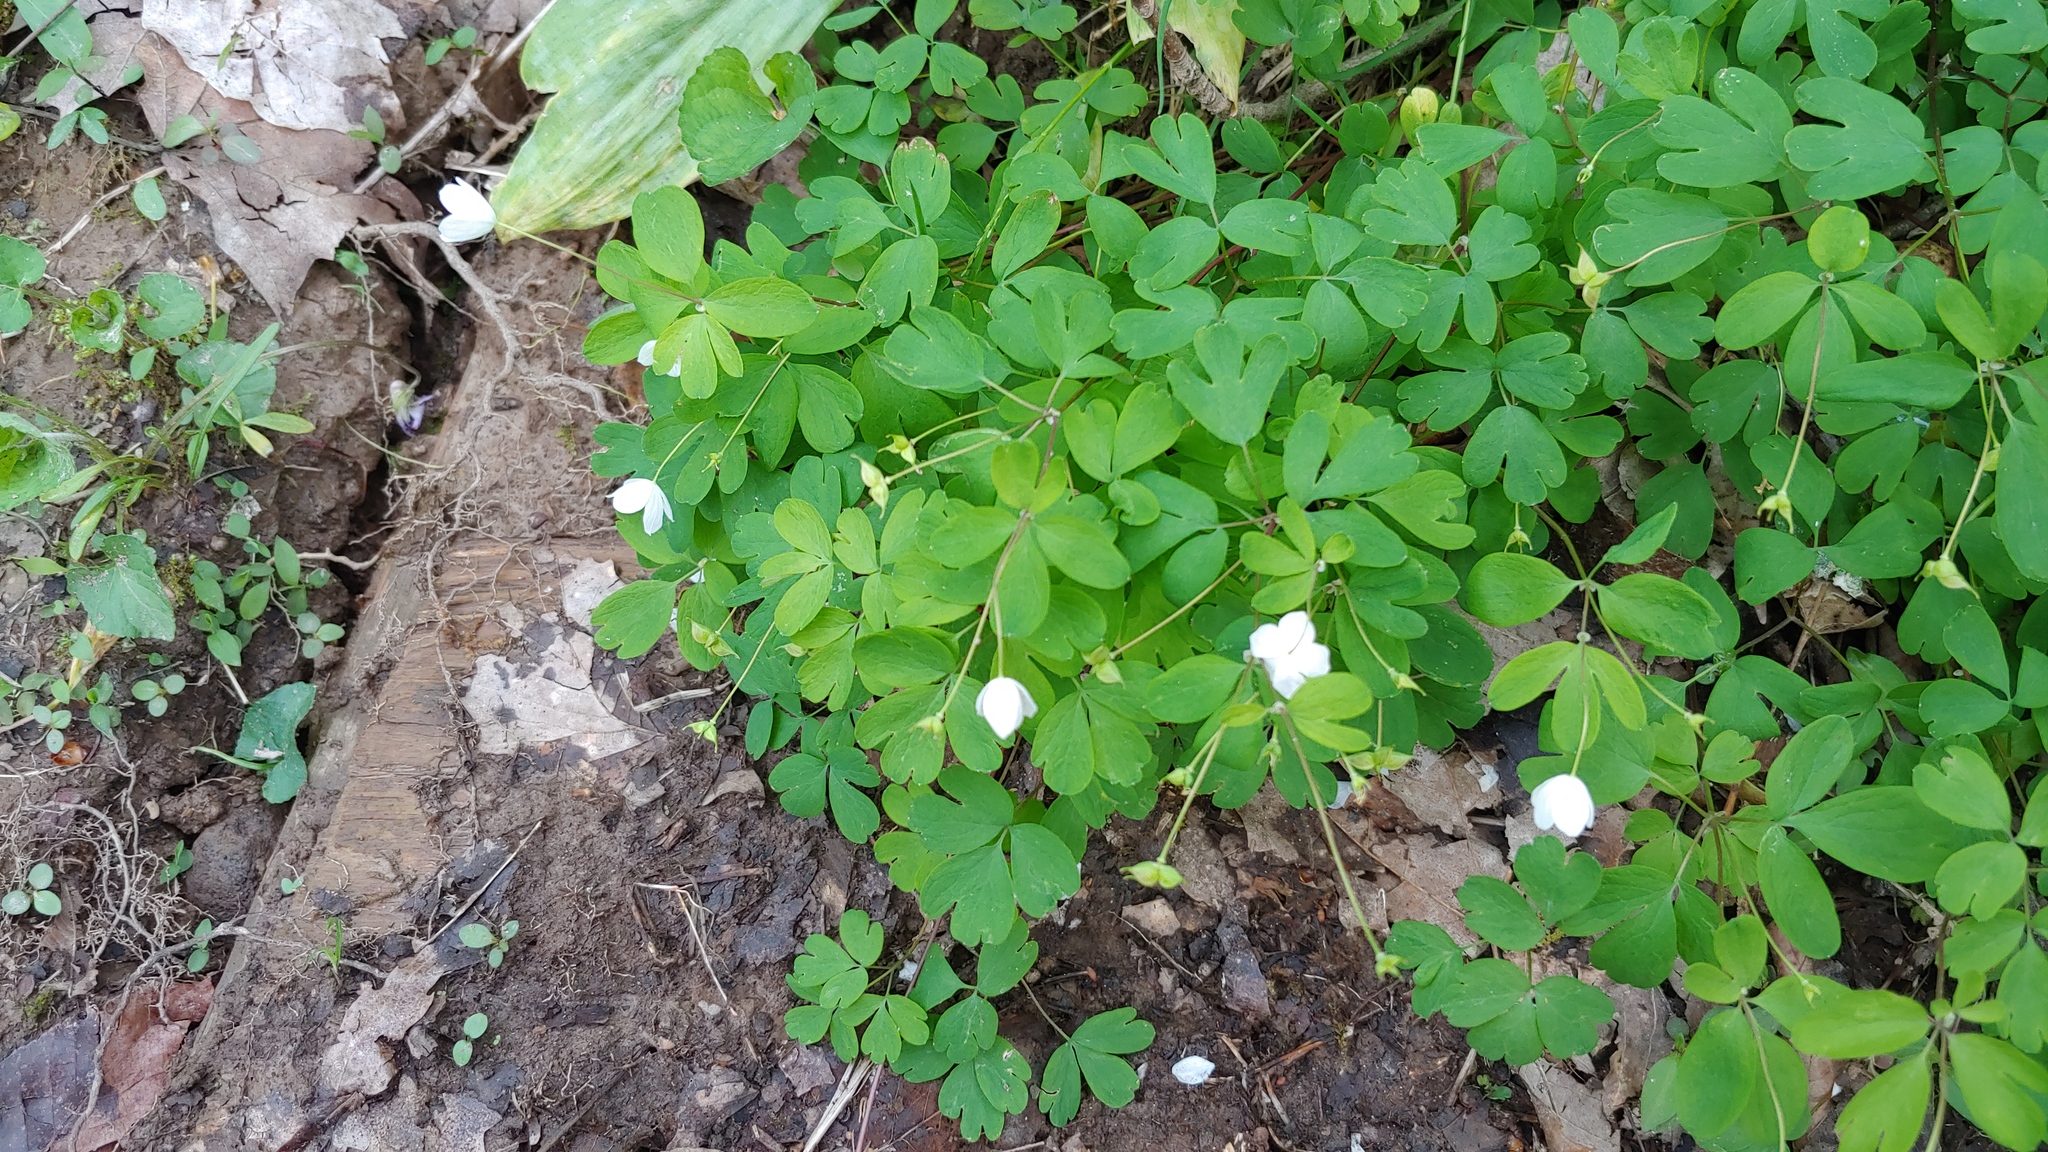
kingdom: Plantae
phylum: Tracheophyta
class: Magnoliopsida
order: Ranunculales
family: Ranunculaceae
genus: Enemion
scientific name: Enemion biternatum
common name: Eastern false rue-anemone
